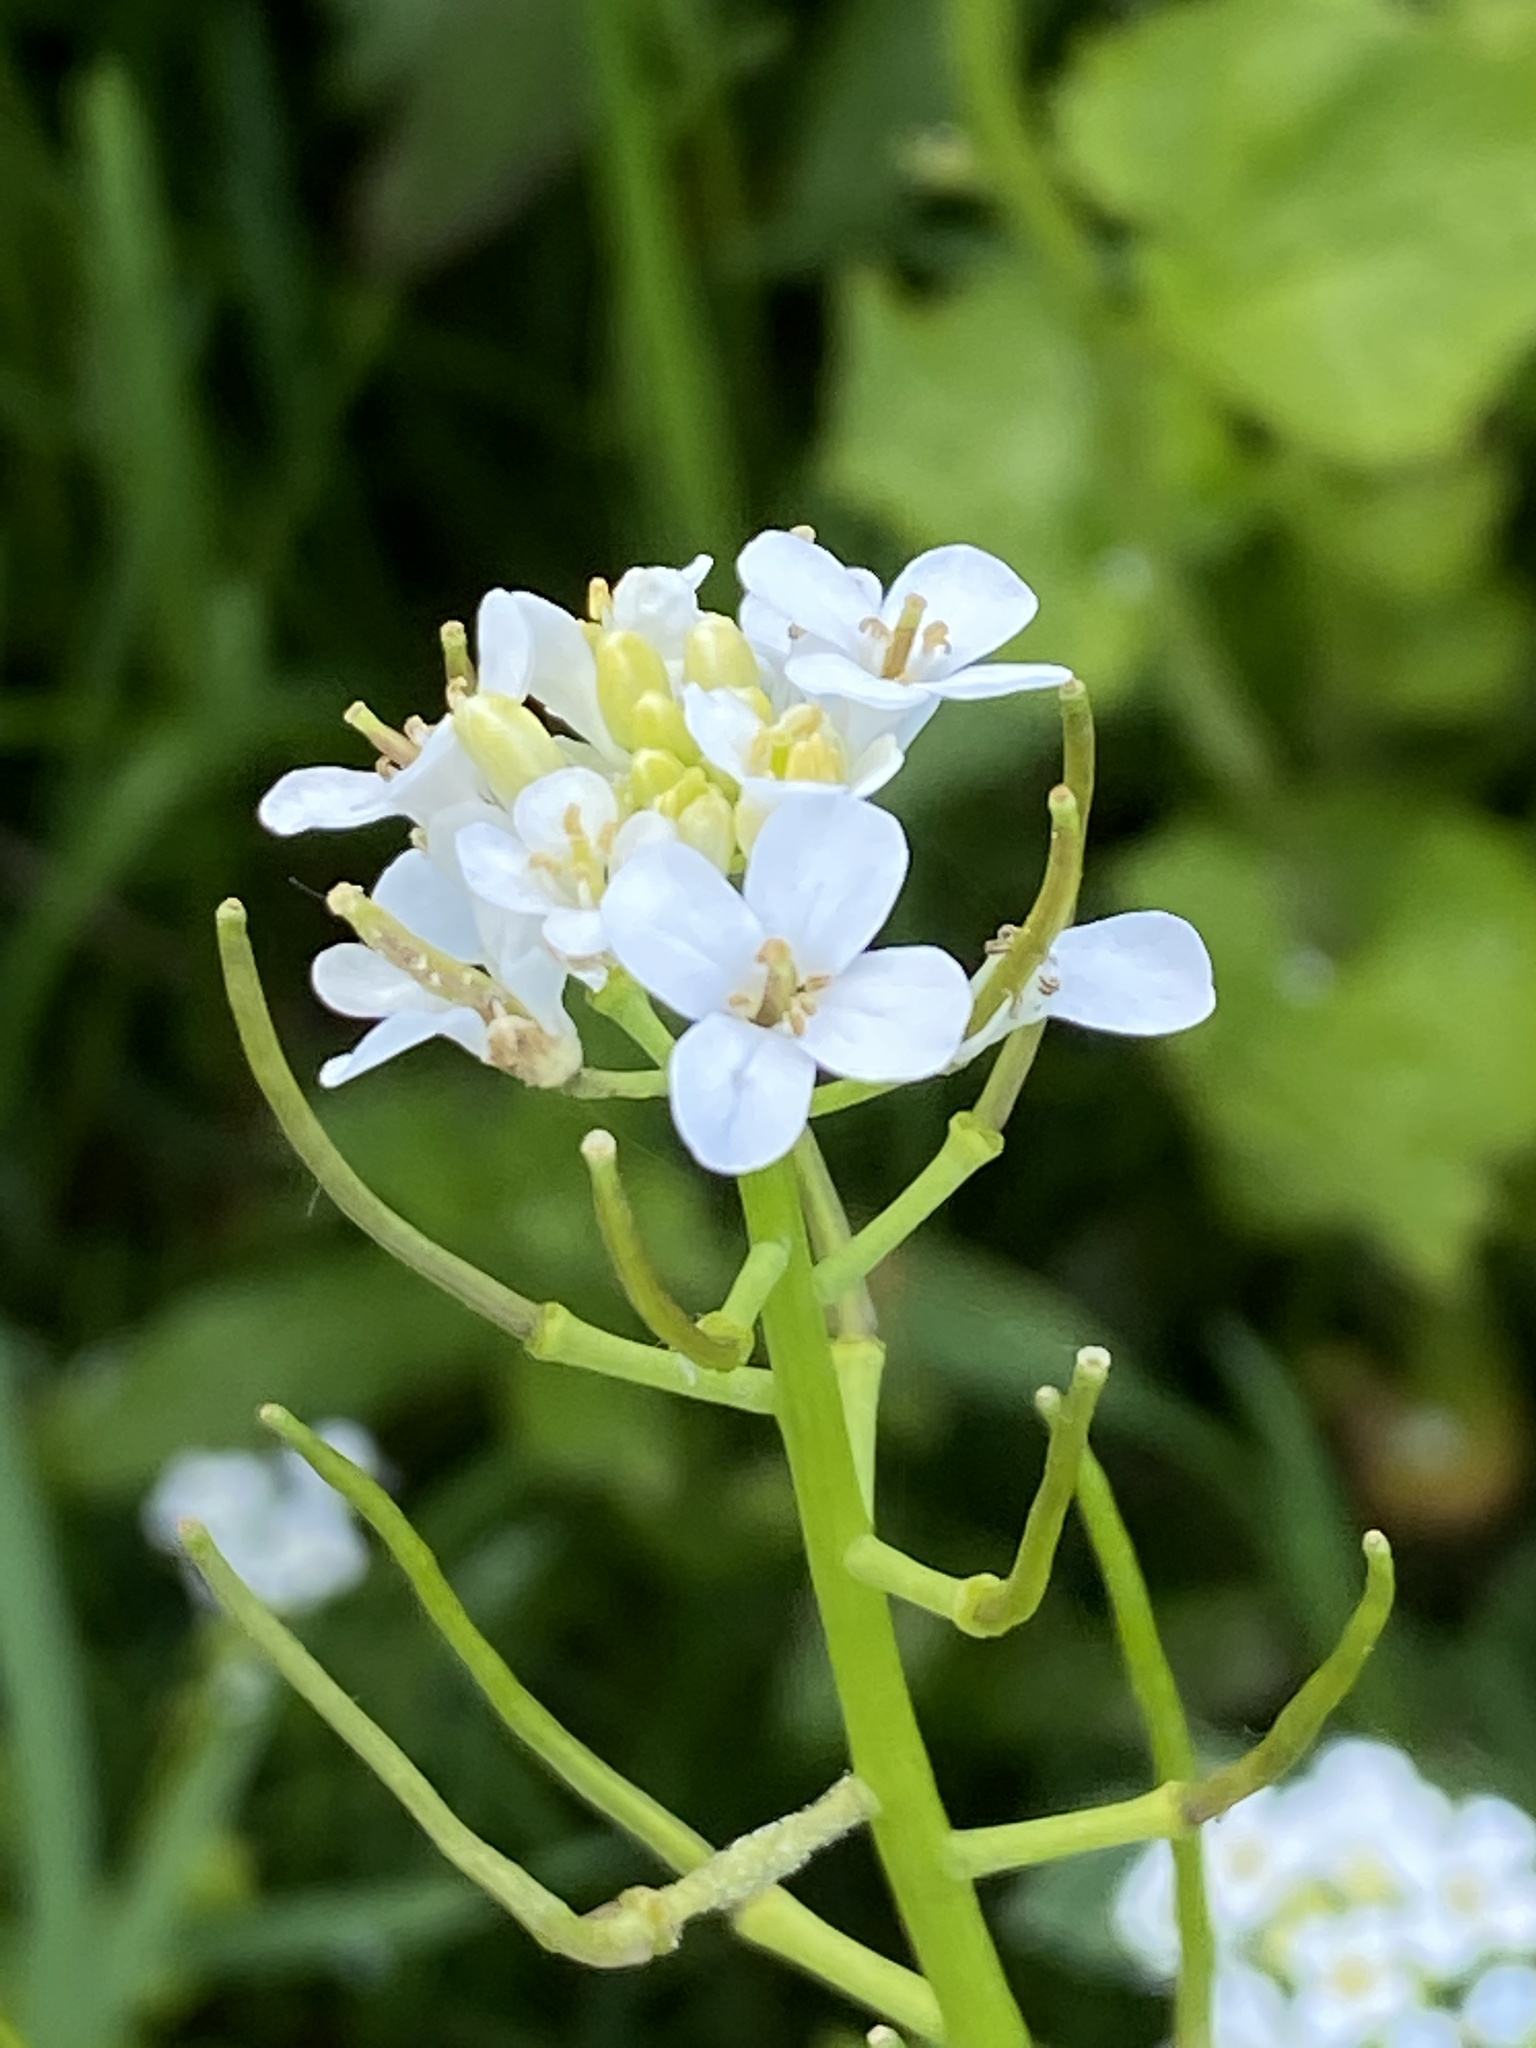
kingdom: Plantae
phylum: Tracheophyta
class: Magnoliopsida
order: Brassicales
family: Brassicaceae
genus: Alliaria
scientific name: Alliaria petiolata
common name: Garlic mustard
